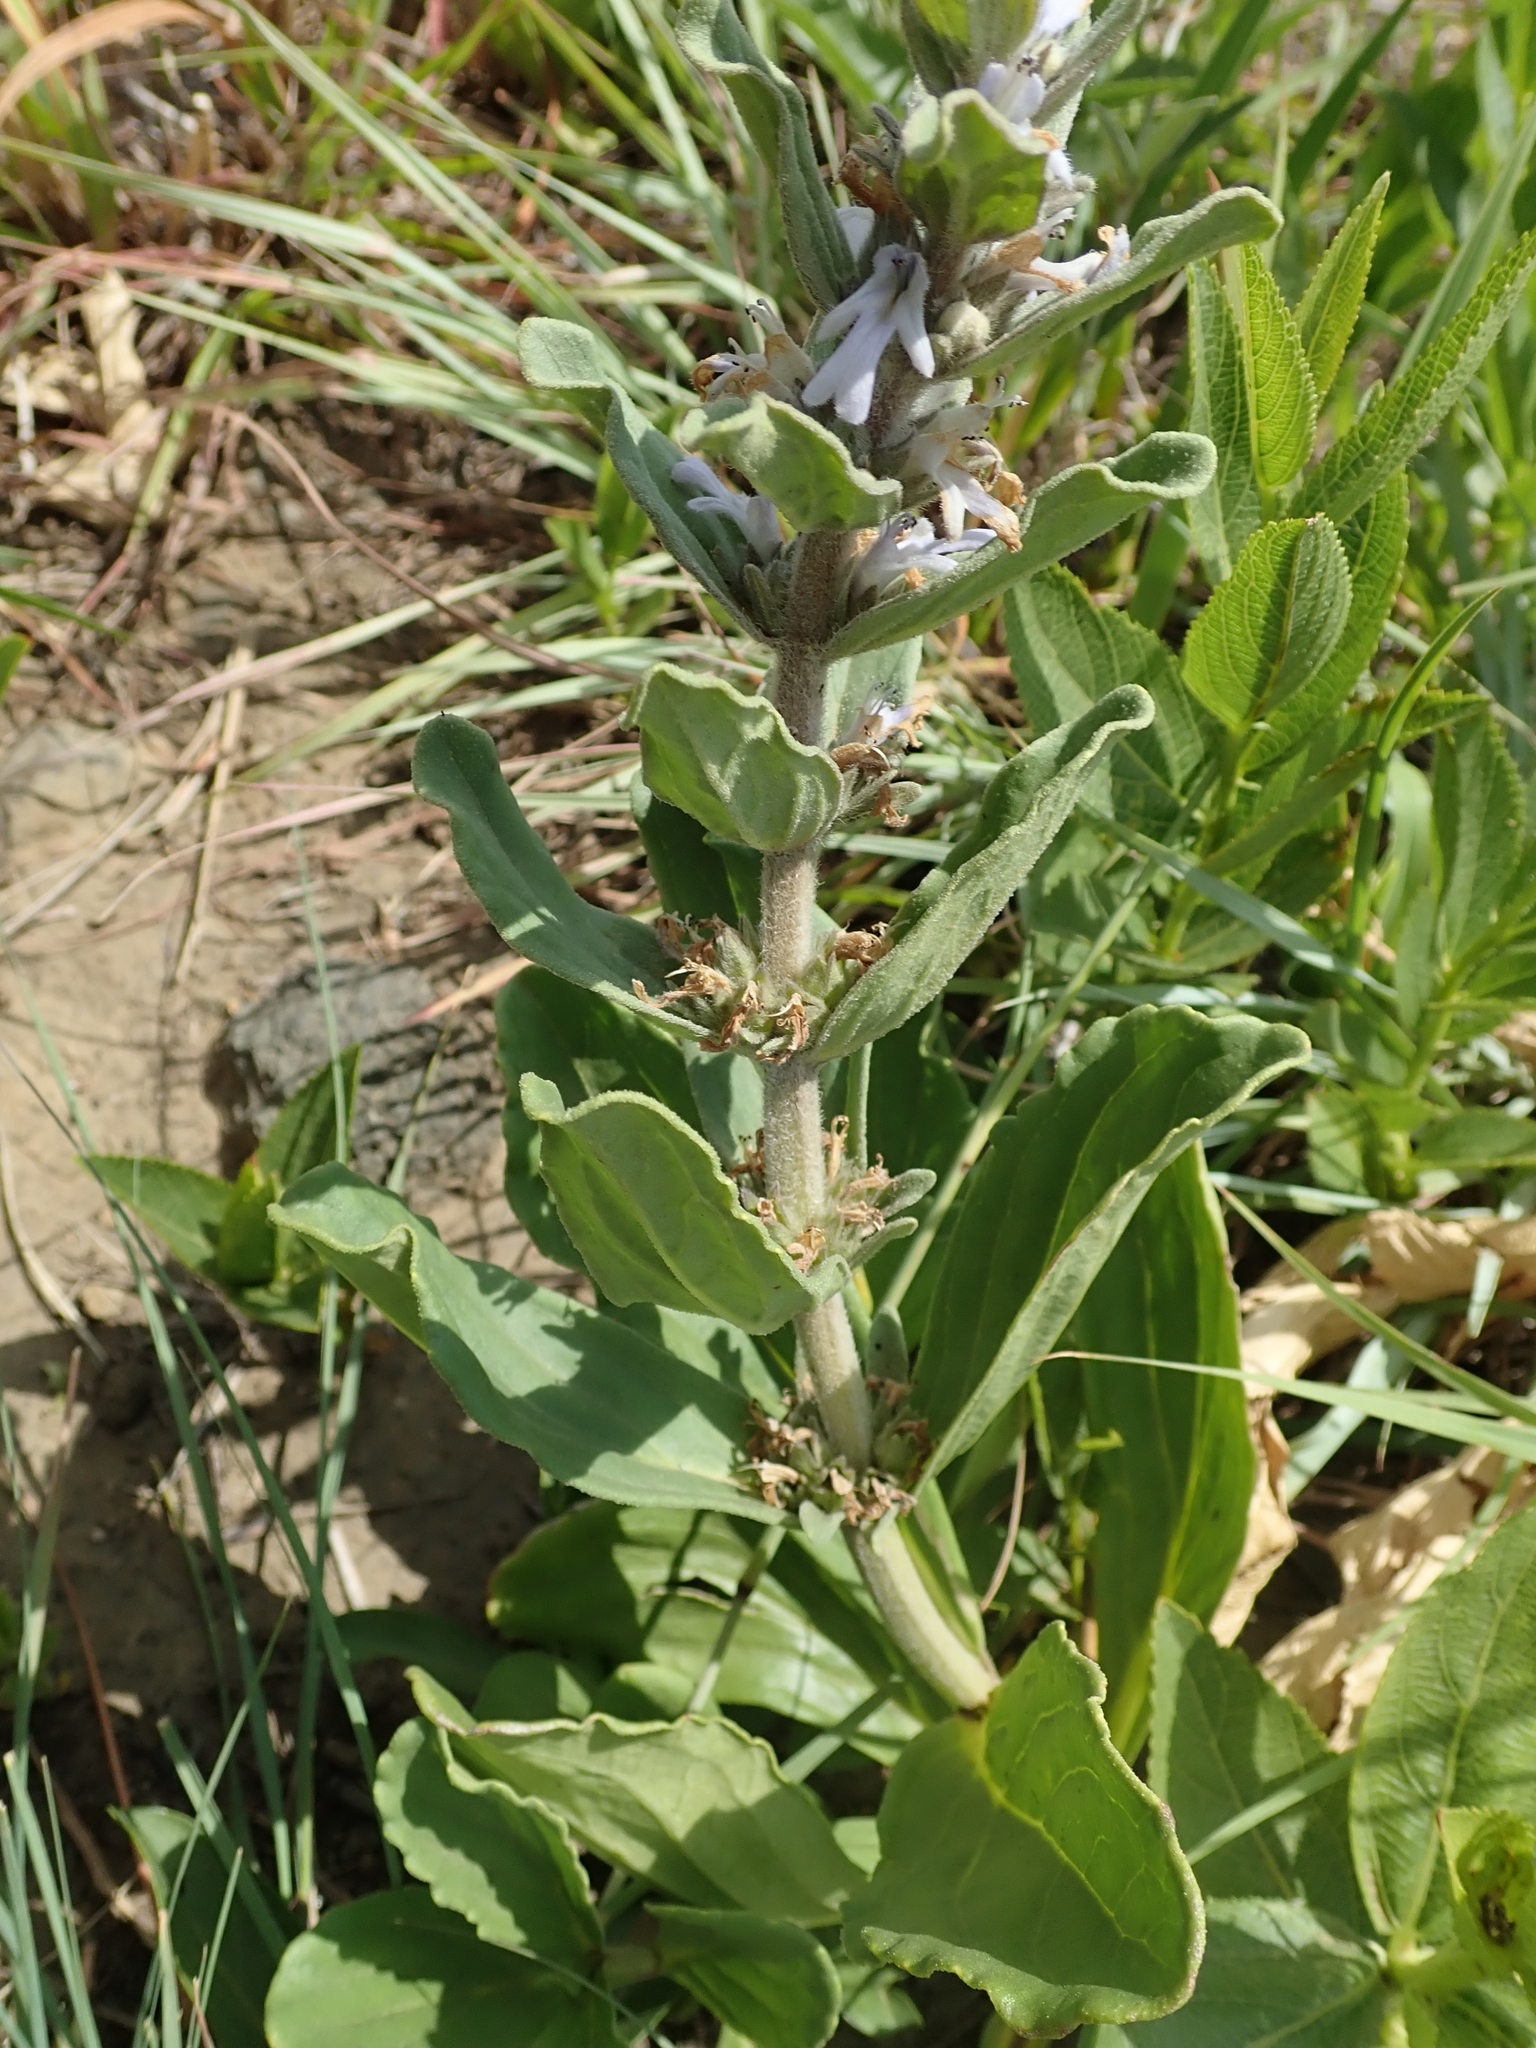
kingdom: Plantae
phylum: Tracheophyta
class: Magnoliopsida
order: Lamiales
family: Lamiaceae
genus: Ajuga
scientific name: Ajuga ophrydis
